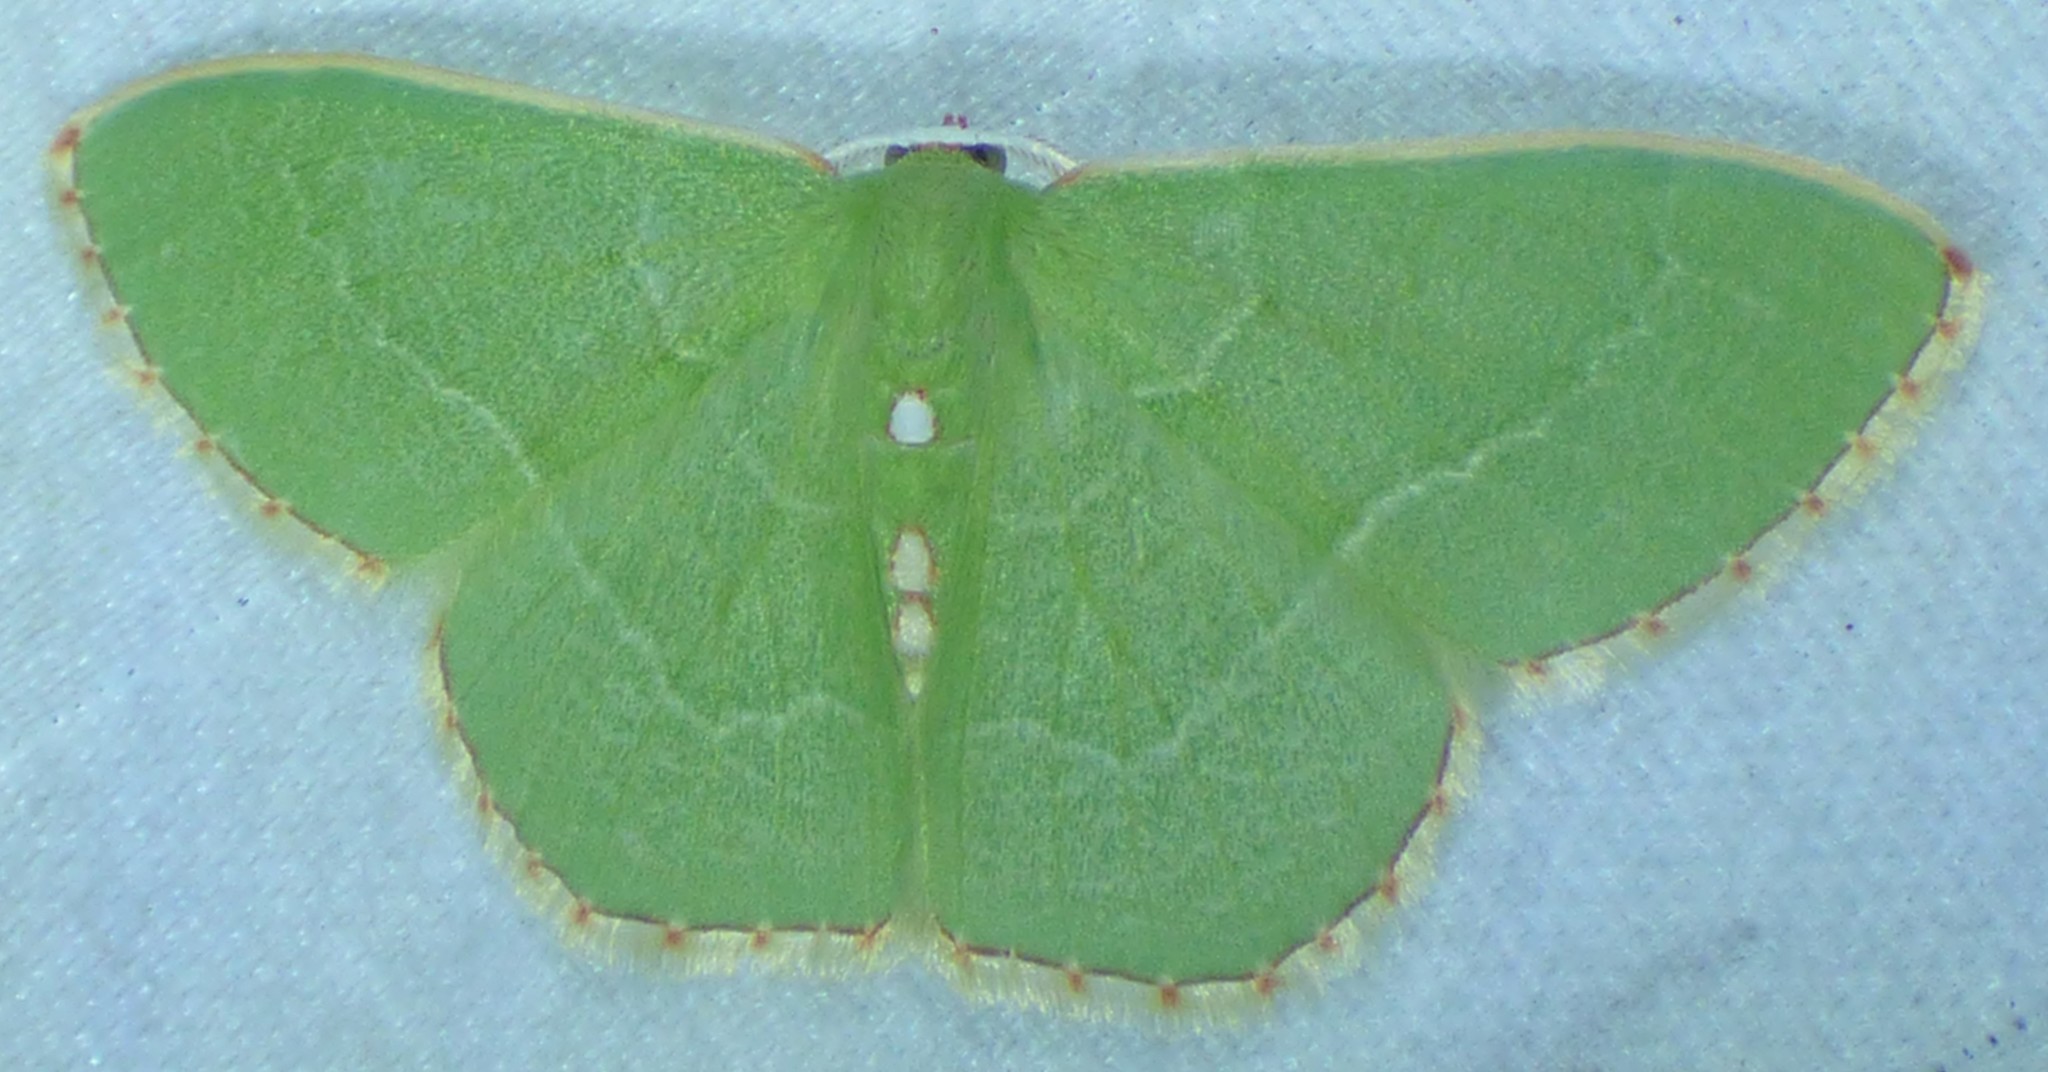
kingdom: Animalia
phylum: Arthropoda
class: Insecta
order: Lepidoptera
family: Geometridae
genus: Nemoria
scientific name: Nemoria lixaria
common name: Red-bordered emerald
